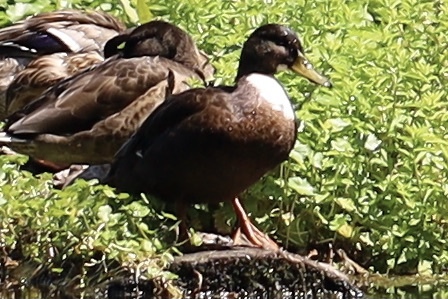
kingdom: Animalia
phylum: Chordata
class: Aves
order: Anseriformes
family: Anatidae
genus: Anas
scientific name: Anas platyrhynchos
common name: Mallard
